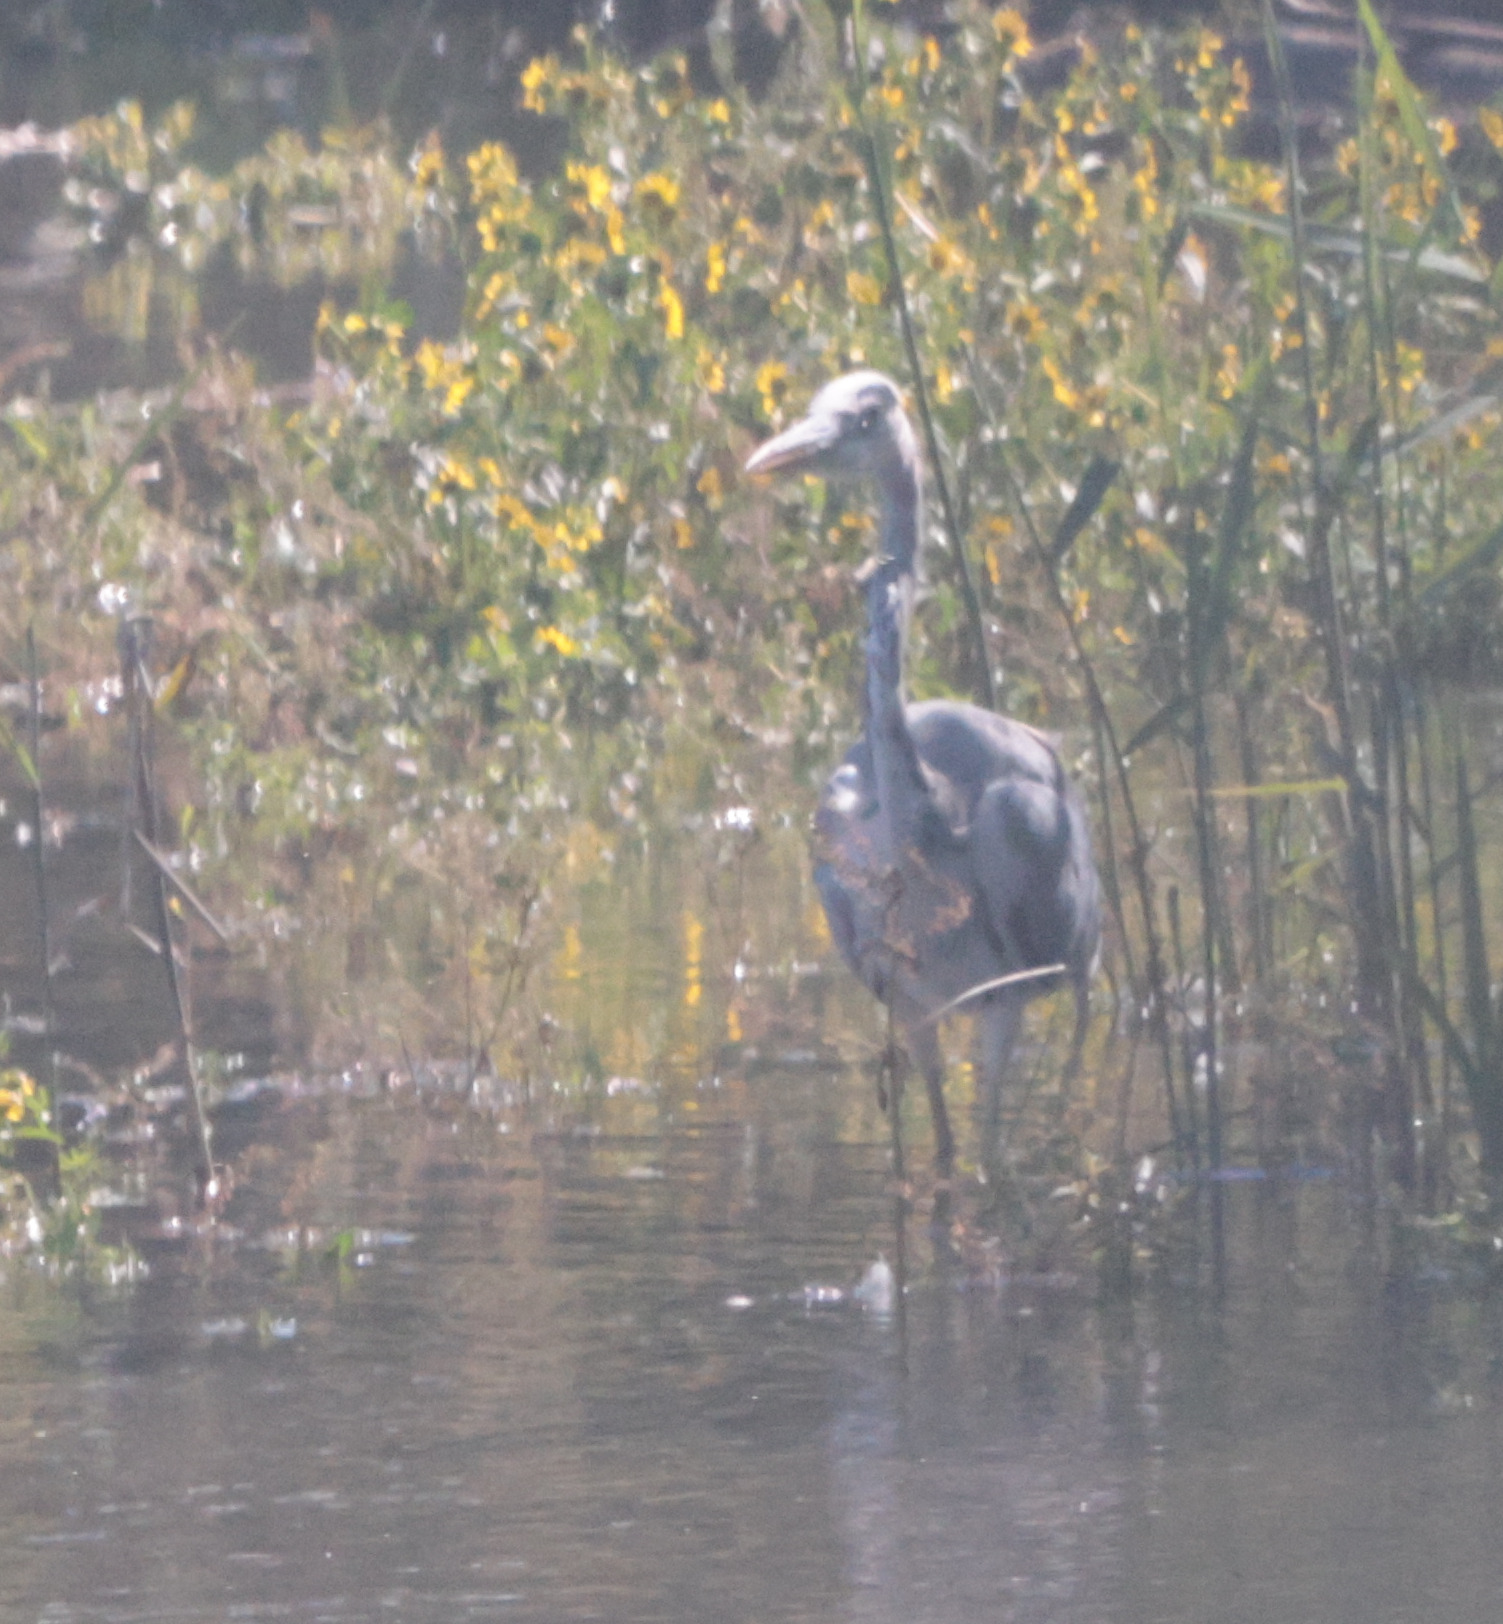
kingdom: Animalia
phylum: Chordata
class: Aves
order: Pelecaniformes
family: Ardeidae
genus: Ardea
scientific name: Ardea cinerea
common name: Grey heron
